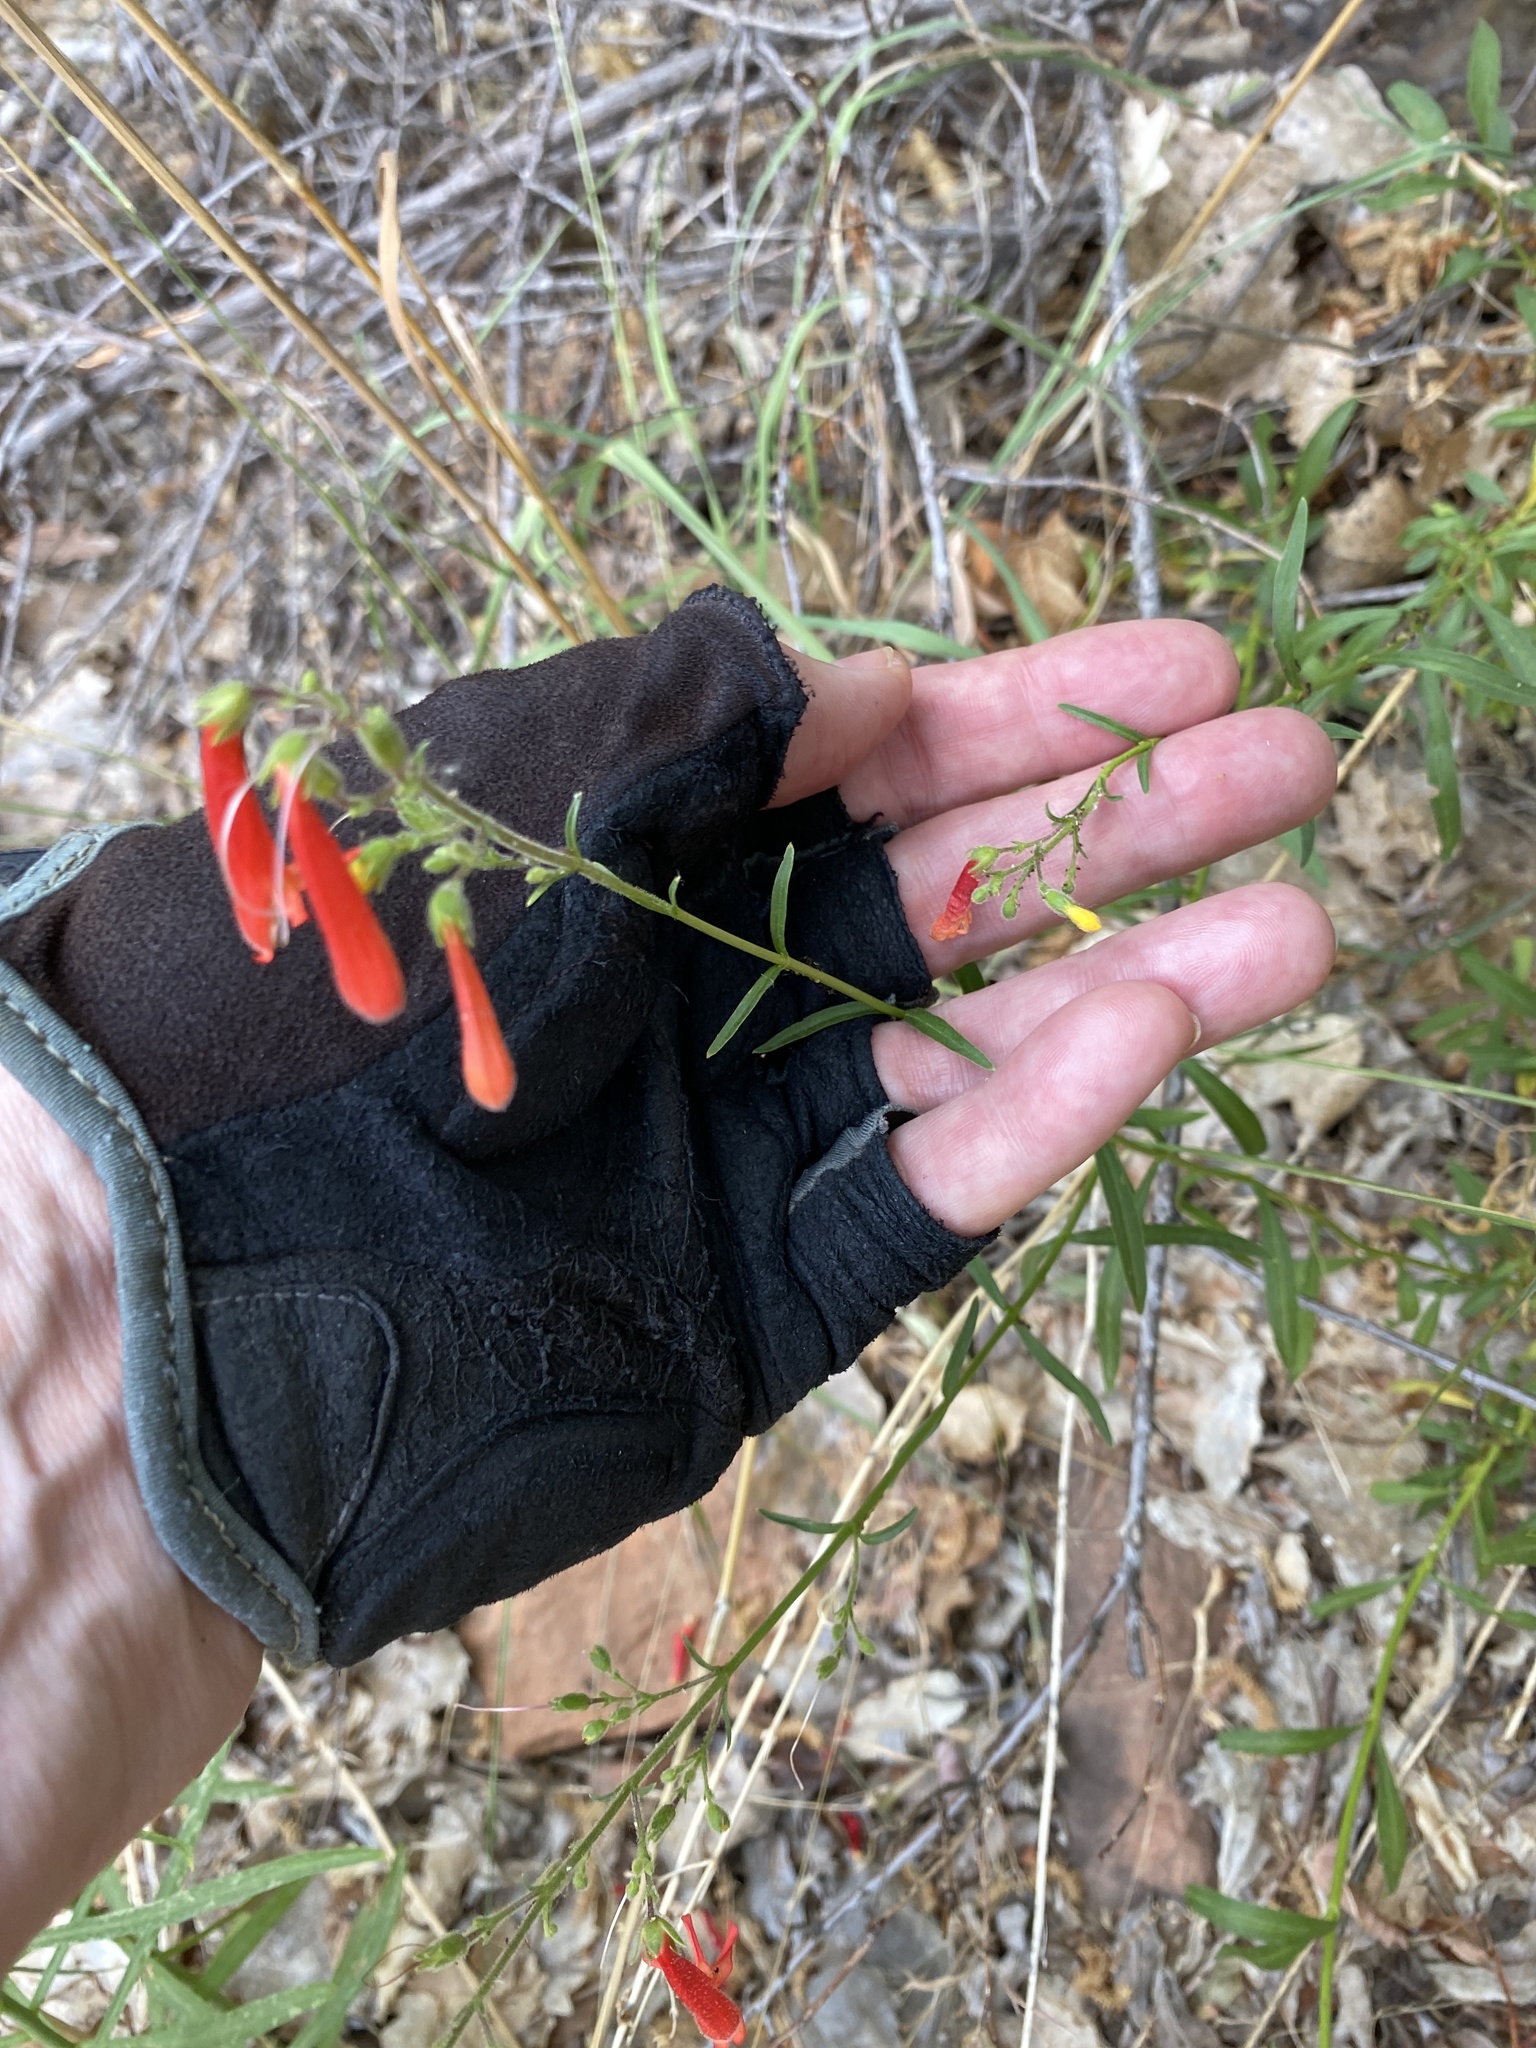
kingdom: Plantae
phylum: Tracheophyta
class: Magnoliopsida
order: Lamiales
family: Plantaginaceae
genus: Penstemon
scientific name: Penstemon rostriflorus
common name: Bridges's penstemon
